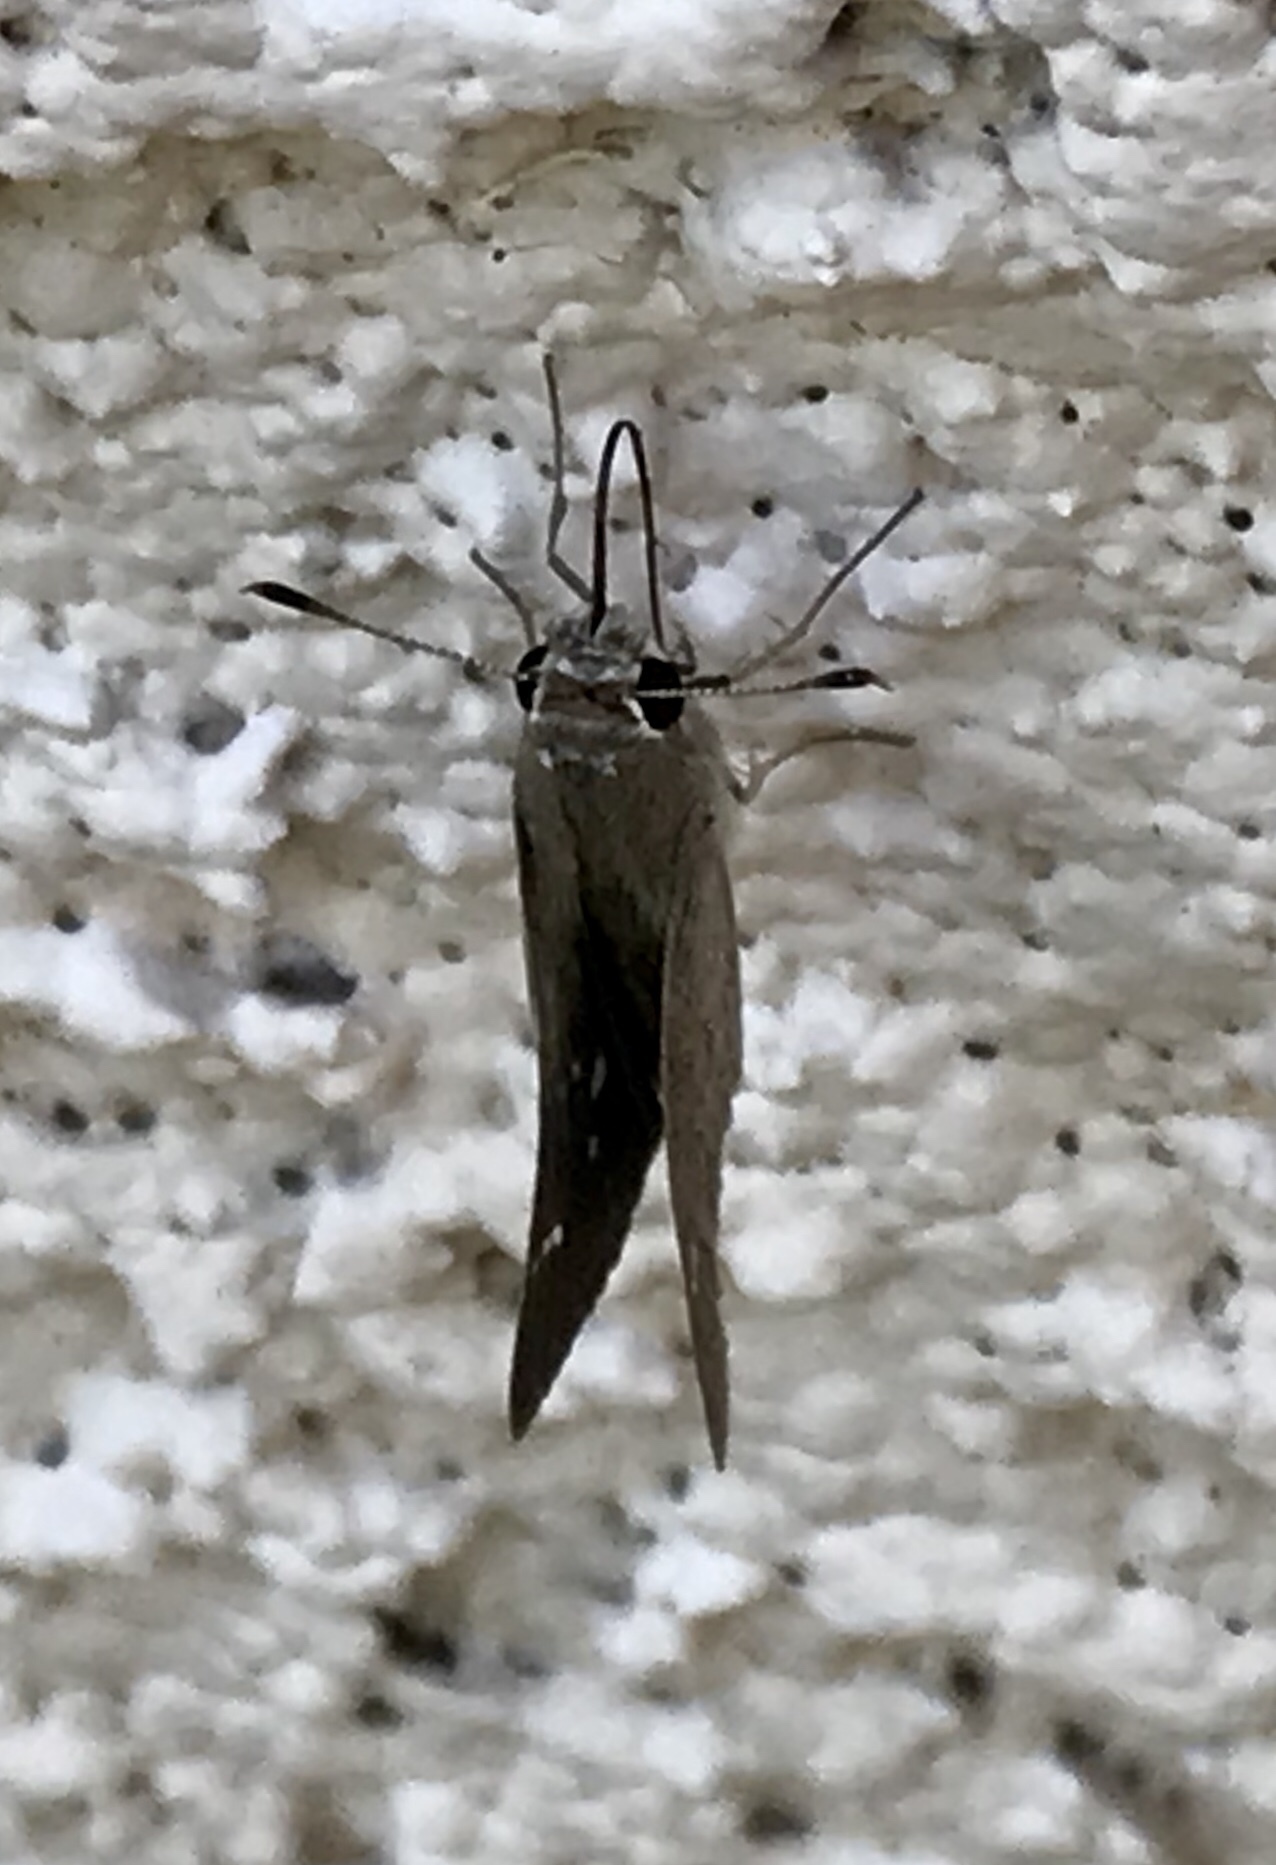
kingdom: Animalia
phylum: Arthropoda
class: Insecta
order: Lepidoptera
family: Hesperiidae
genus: Lerodea
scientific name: Lerodea eufala
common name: Eufala skipper
